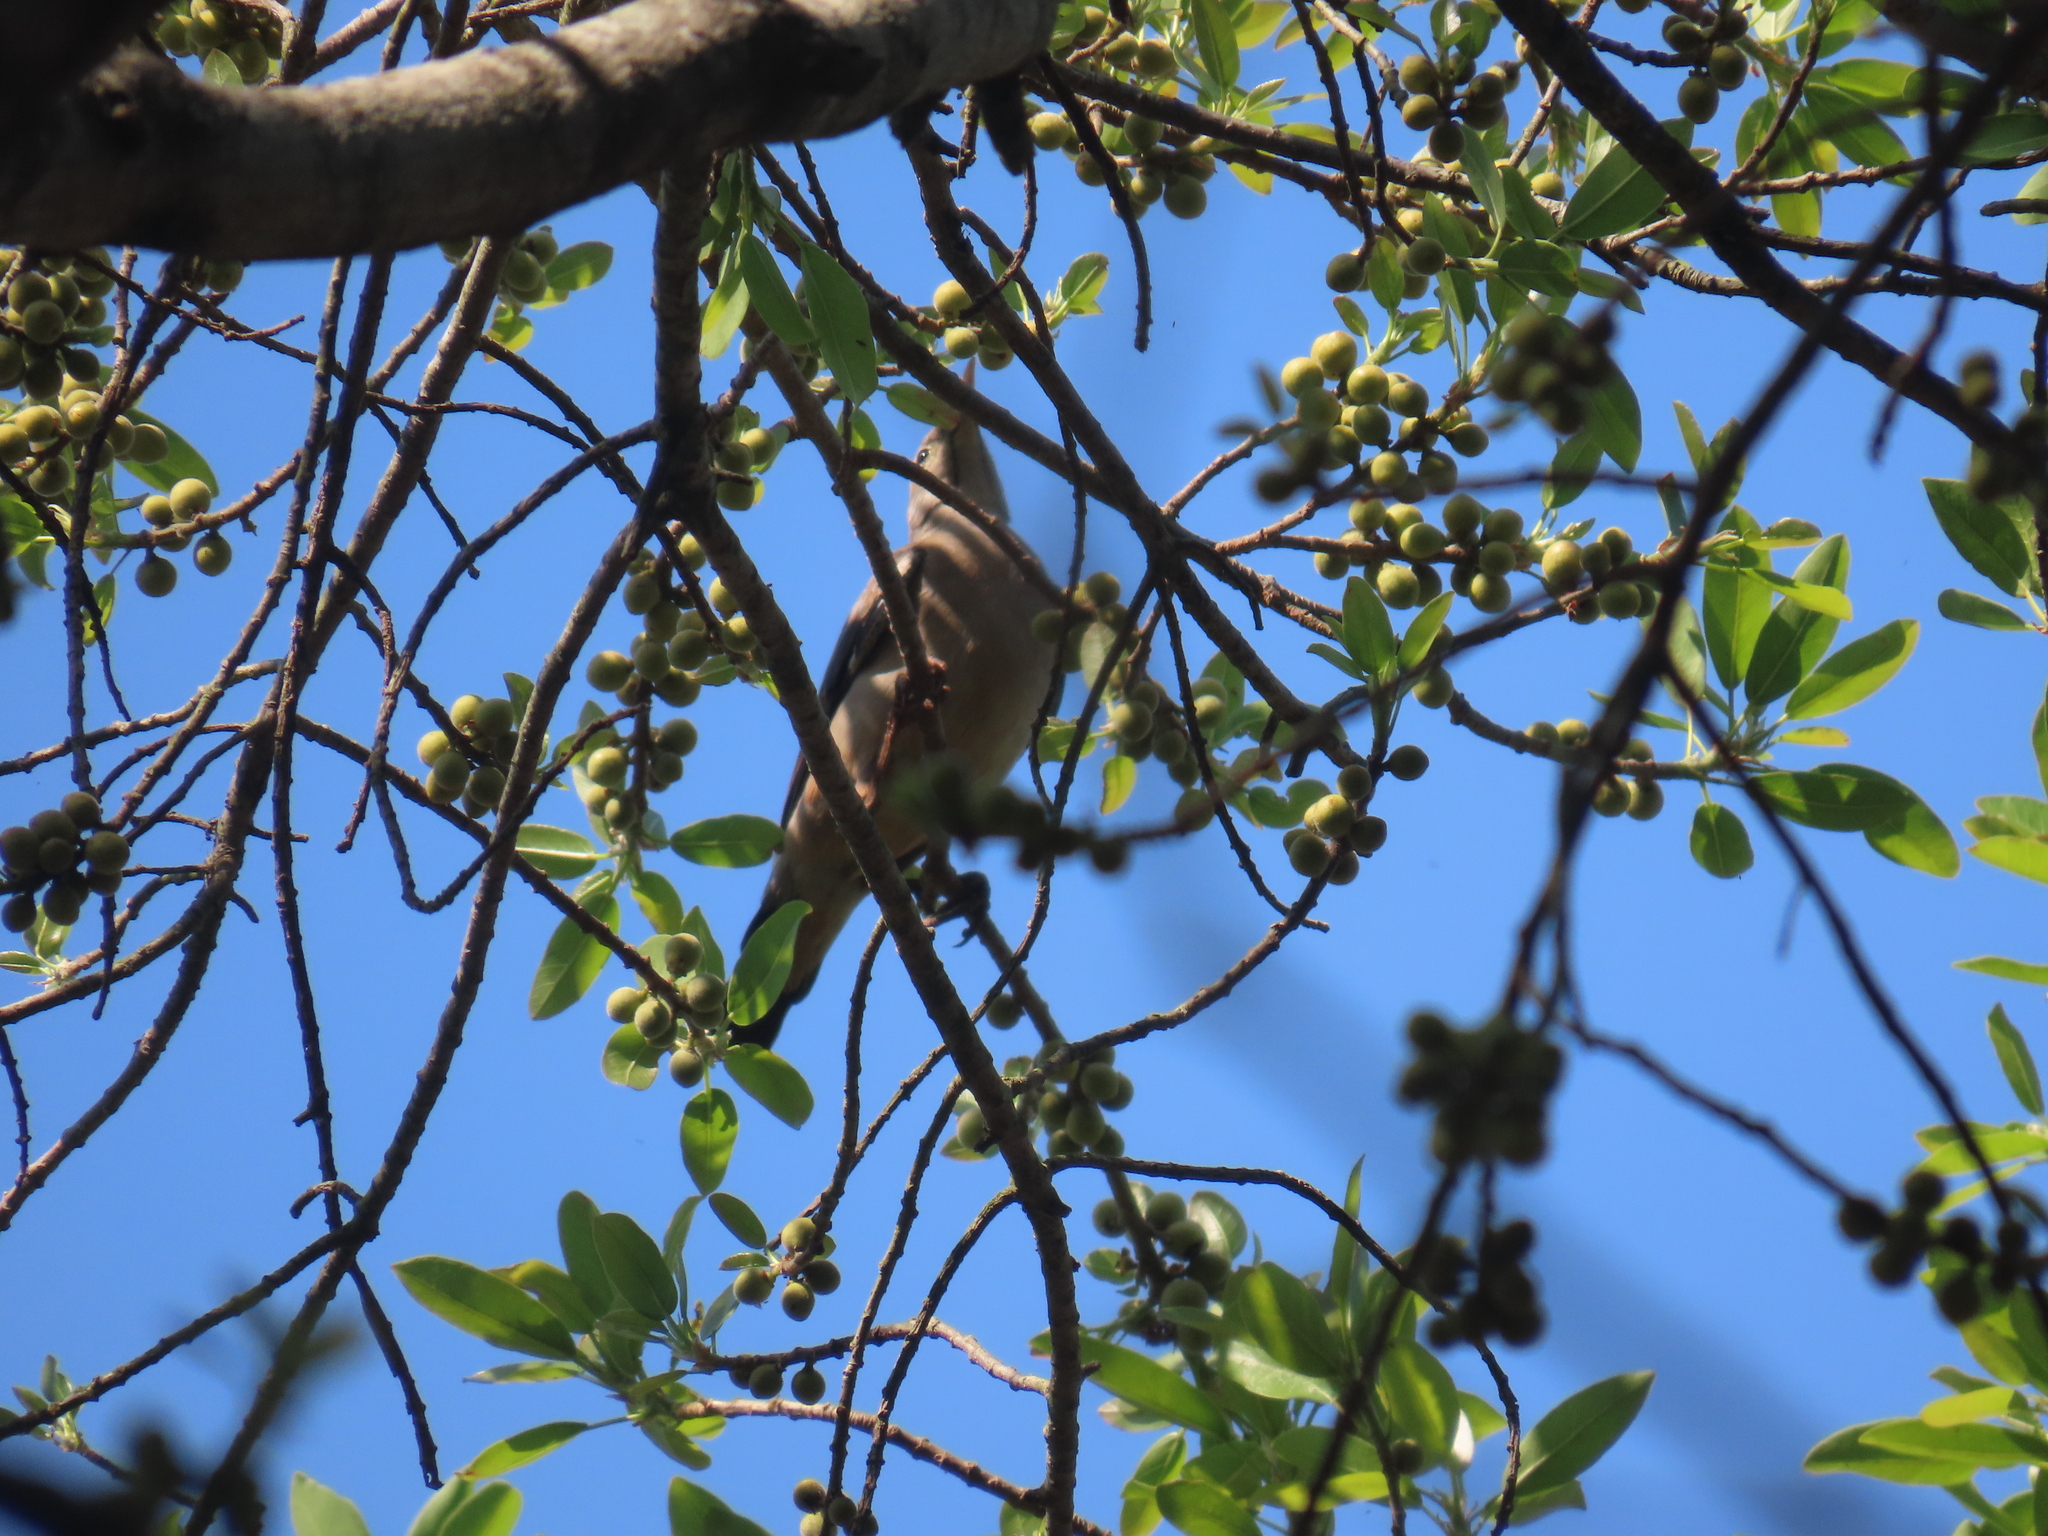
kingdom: Animalia
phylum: Chordata
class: Aves
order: Passeriformes
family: Sturnidae
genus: Creatophora
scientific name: Creatophora cinerea
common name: Wattled starling
